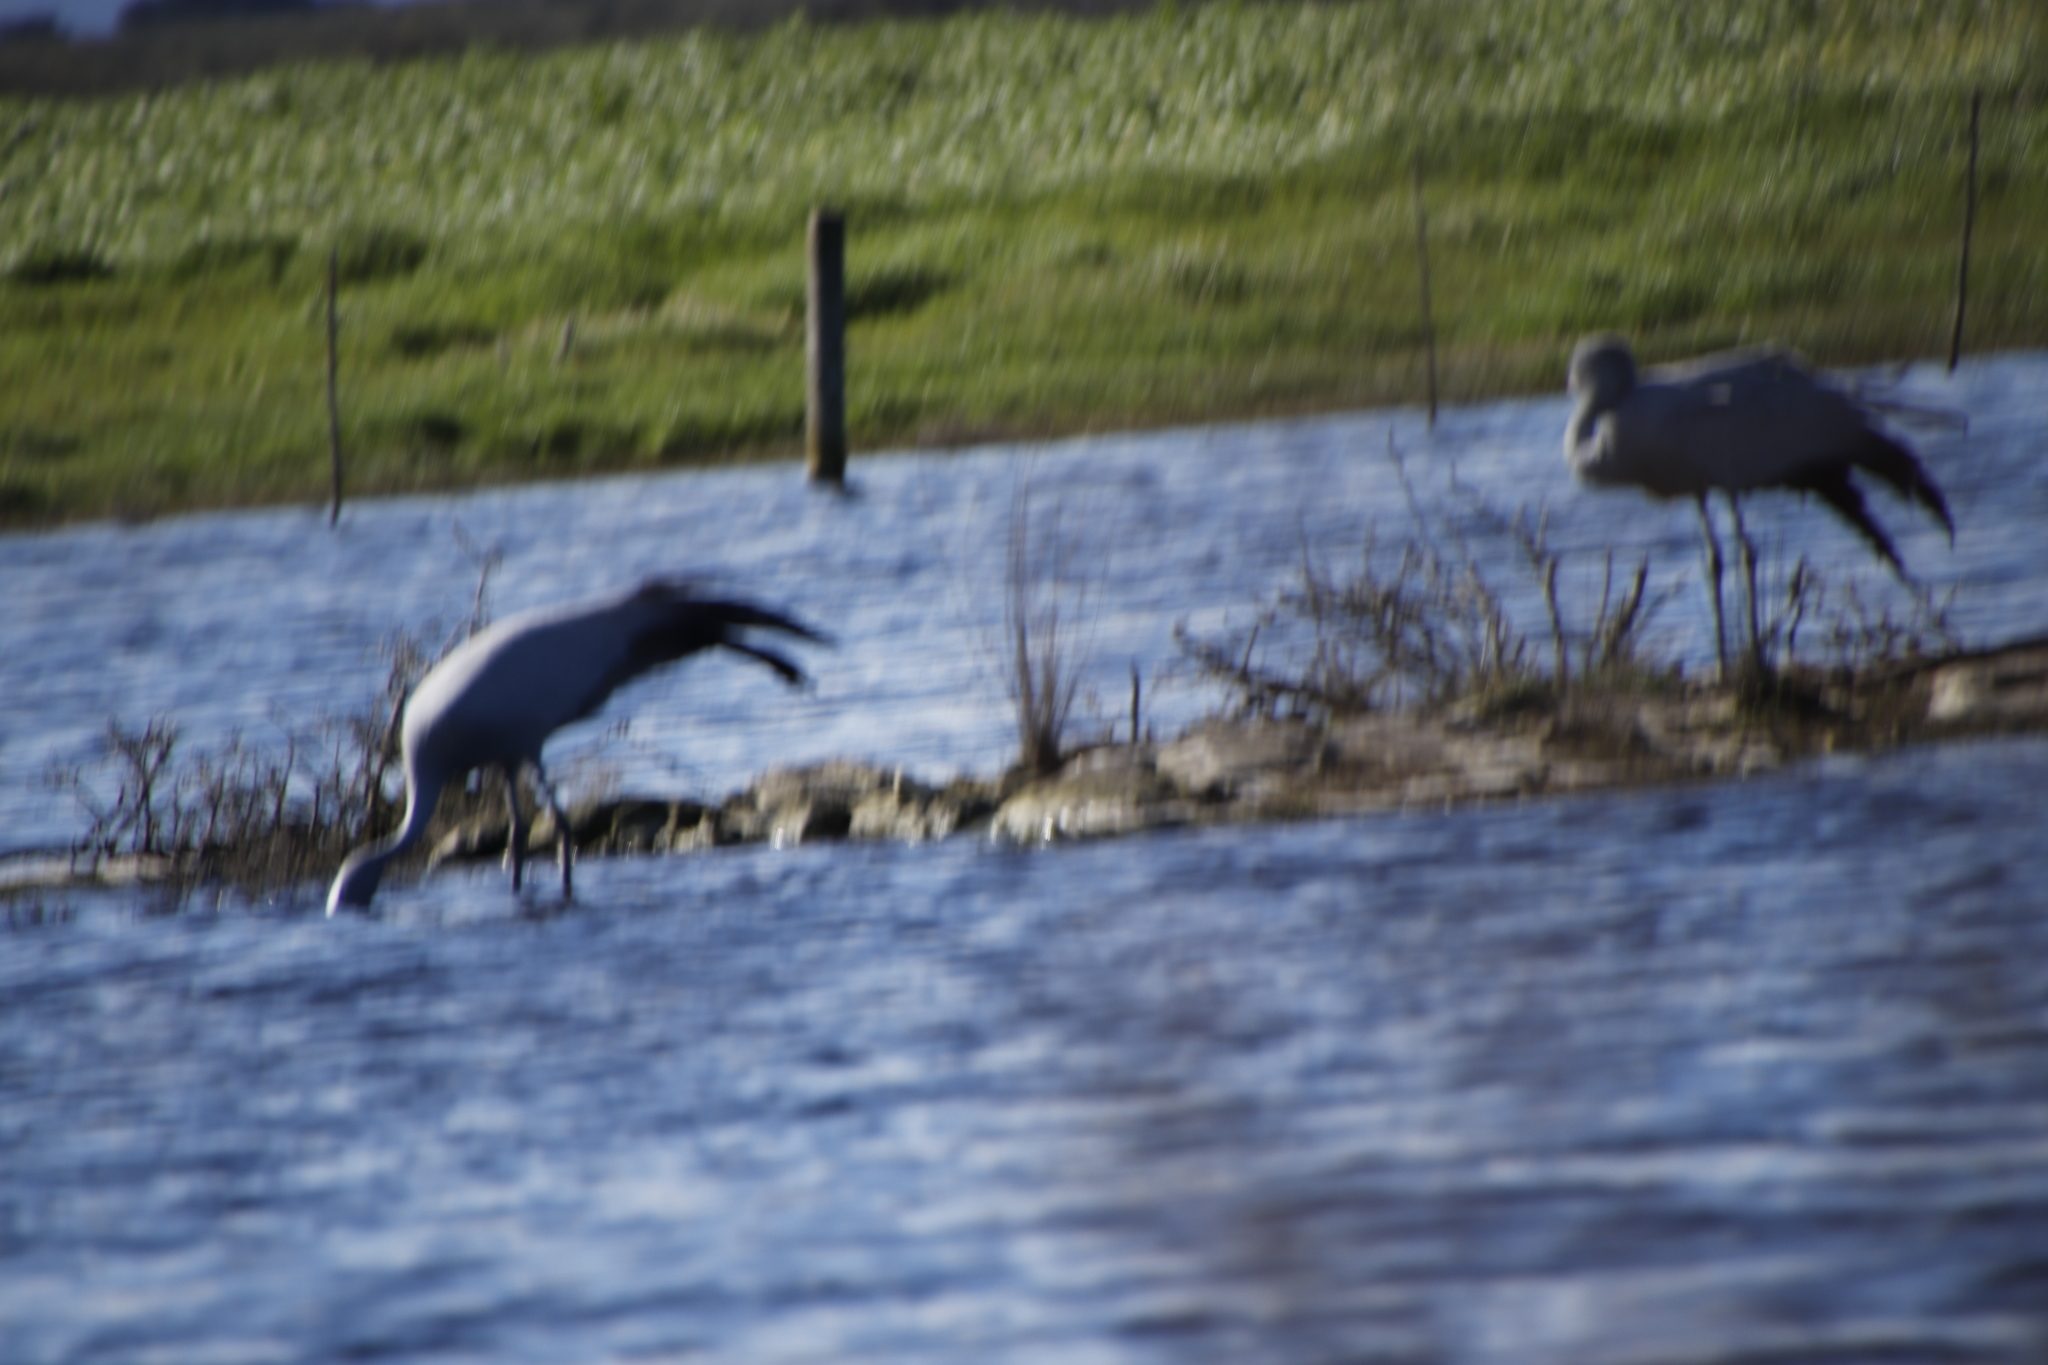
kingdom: Animalia
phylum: Chordata
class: Aves
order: Gruiformes
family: Gruidae
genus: Anthropoides
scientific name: Anthropoides paradiseus
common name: Blue crane
